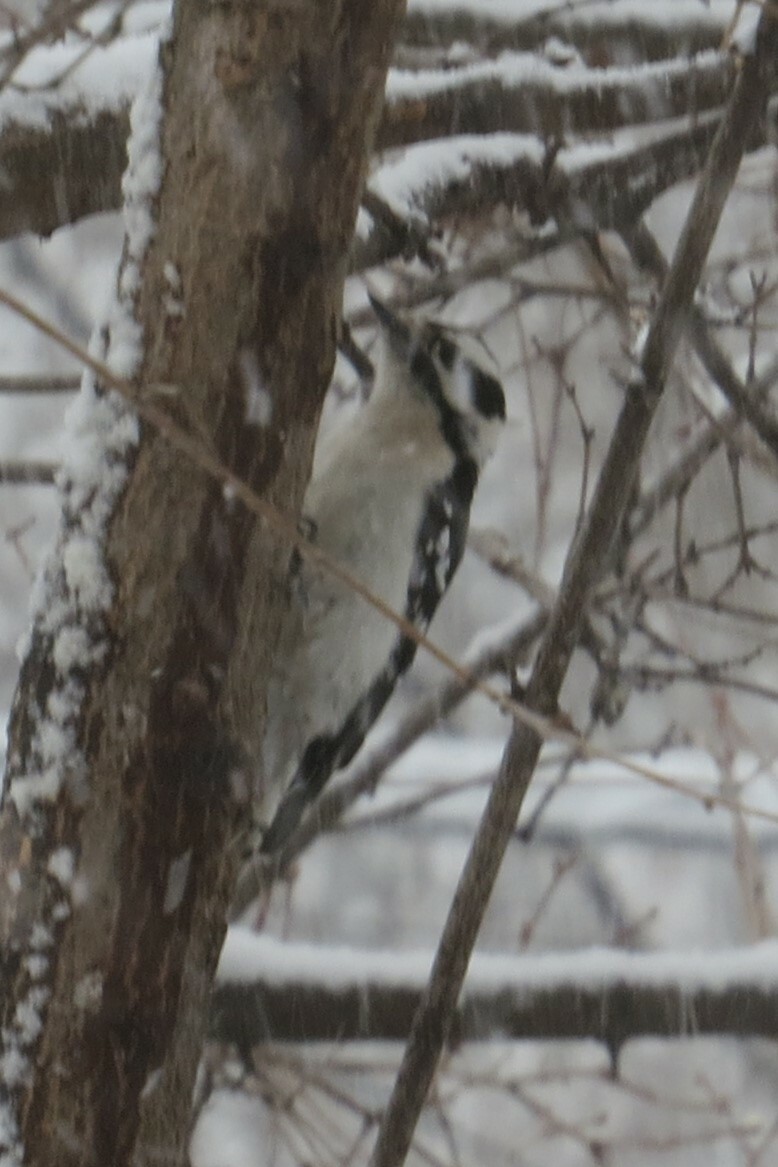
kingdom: Animalia
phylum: Chordata
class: Aves
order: Piciformes
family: Picidae
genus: Dryobates
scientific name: Dryobates pubescens
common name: Downy woodpecker
